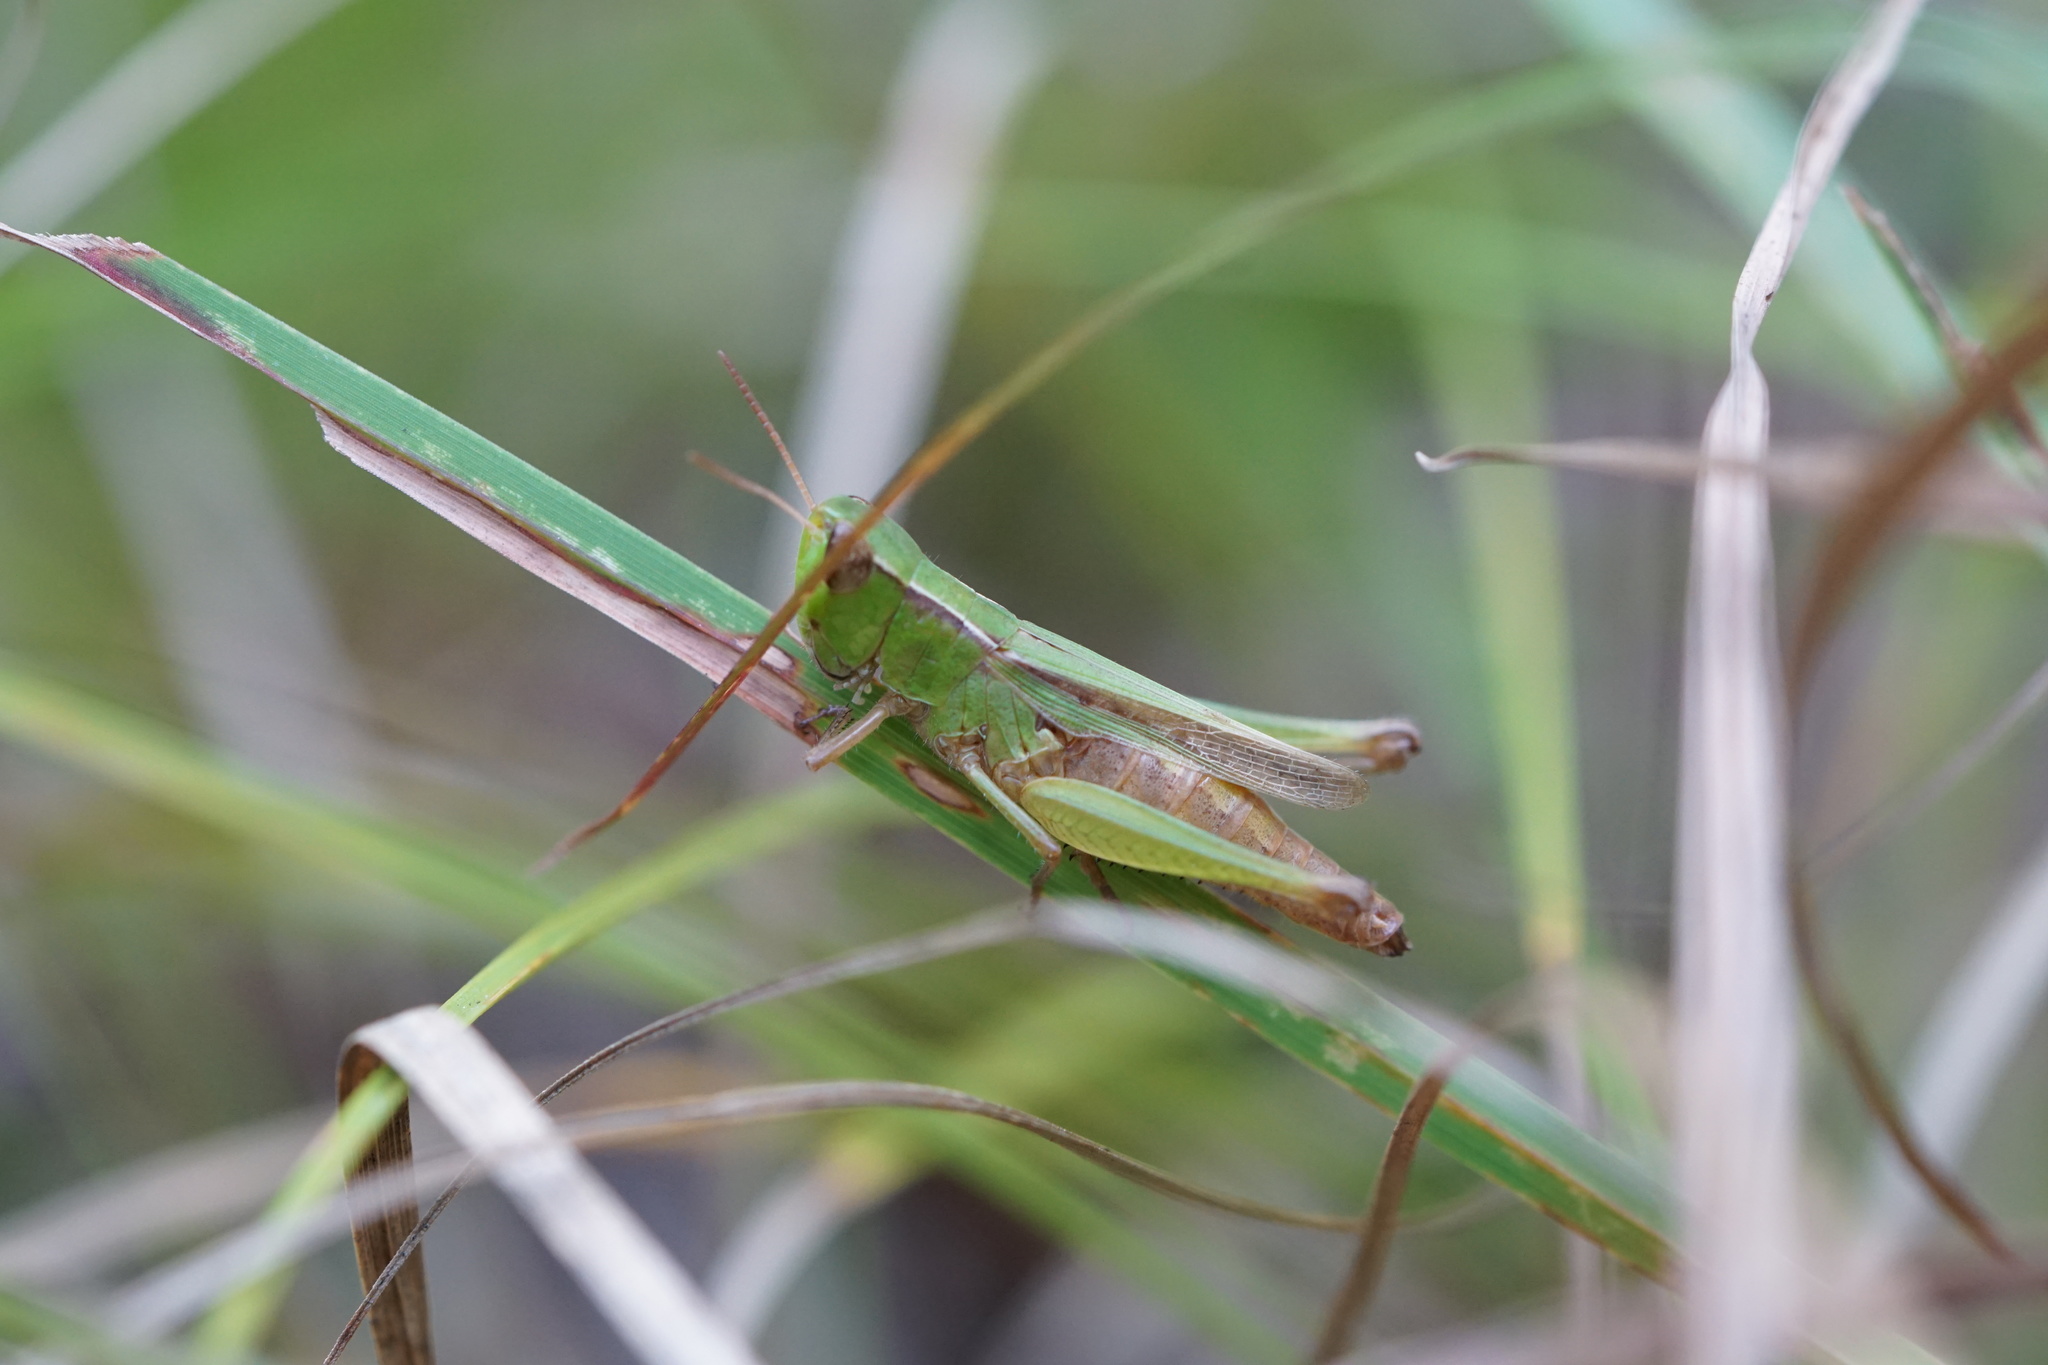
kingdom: Animalia
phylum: Arthropoda
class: Insecta
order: Orthoptera
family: Acrididae
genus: Orphulella
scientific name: Orphulella speciosa
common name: Pasture grasshopper
